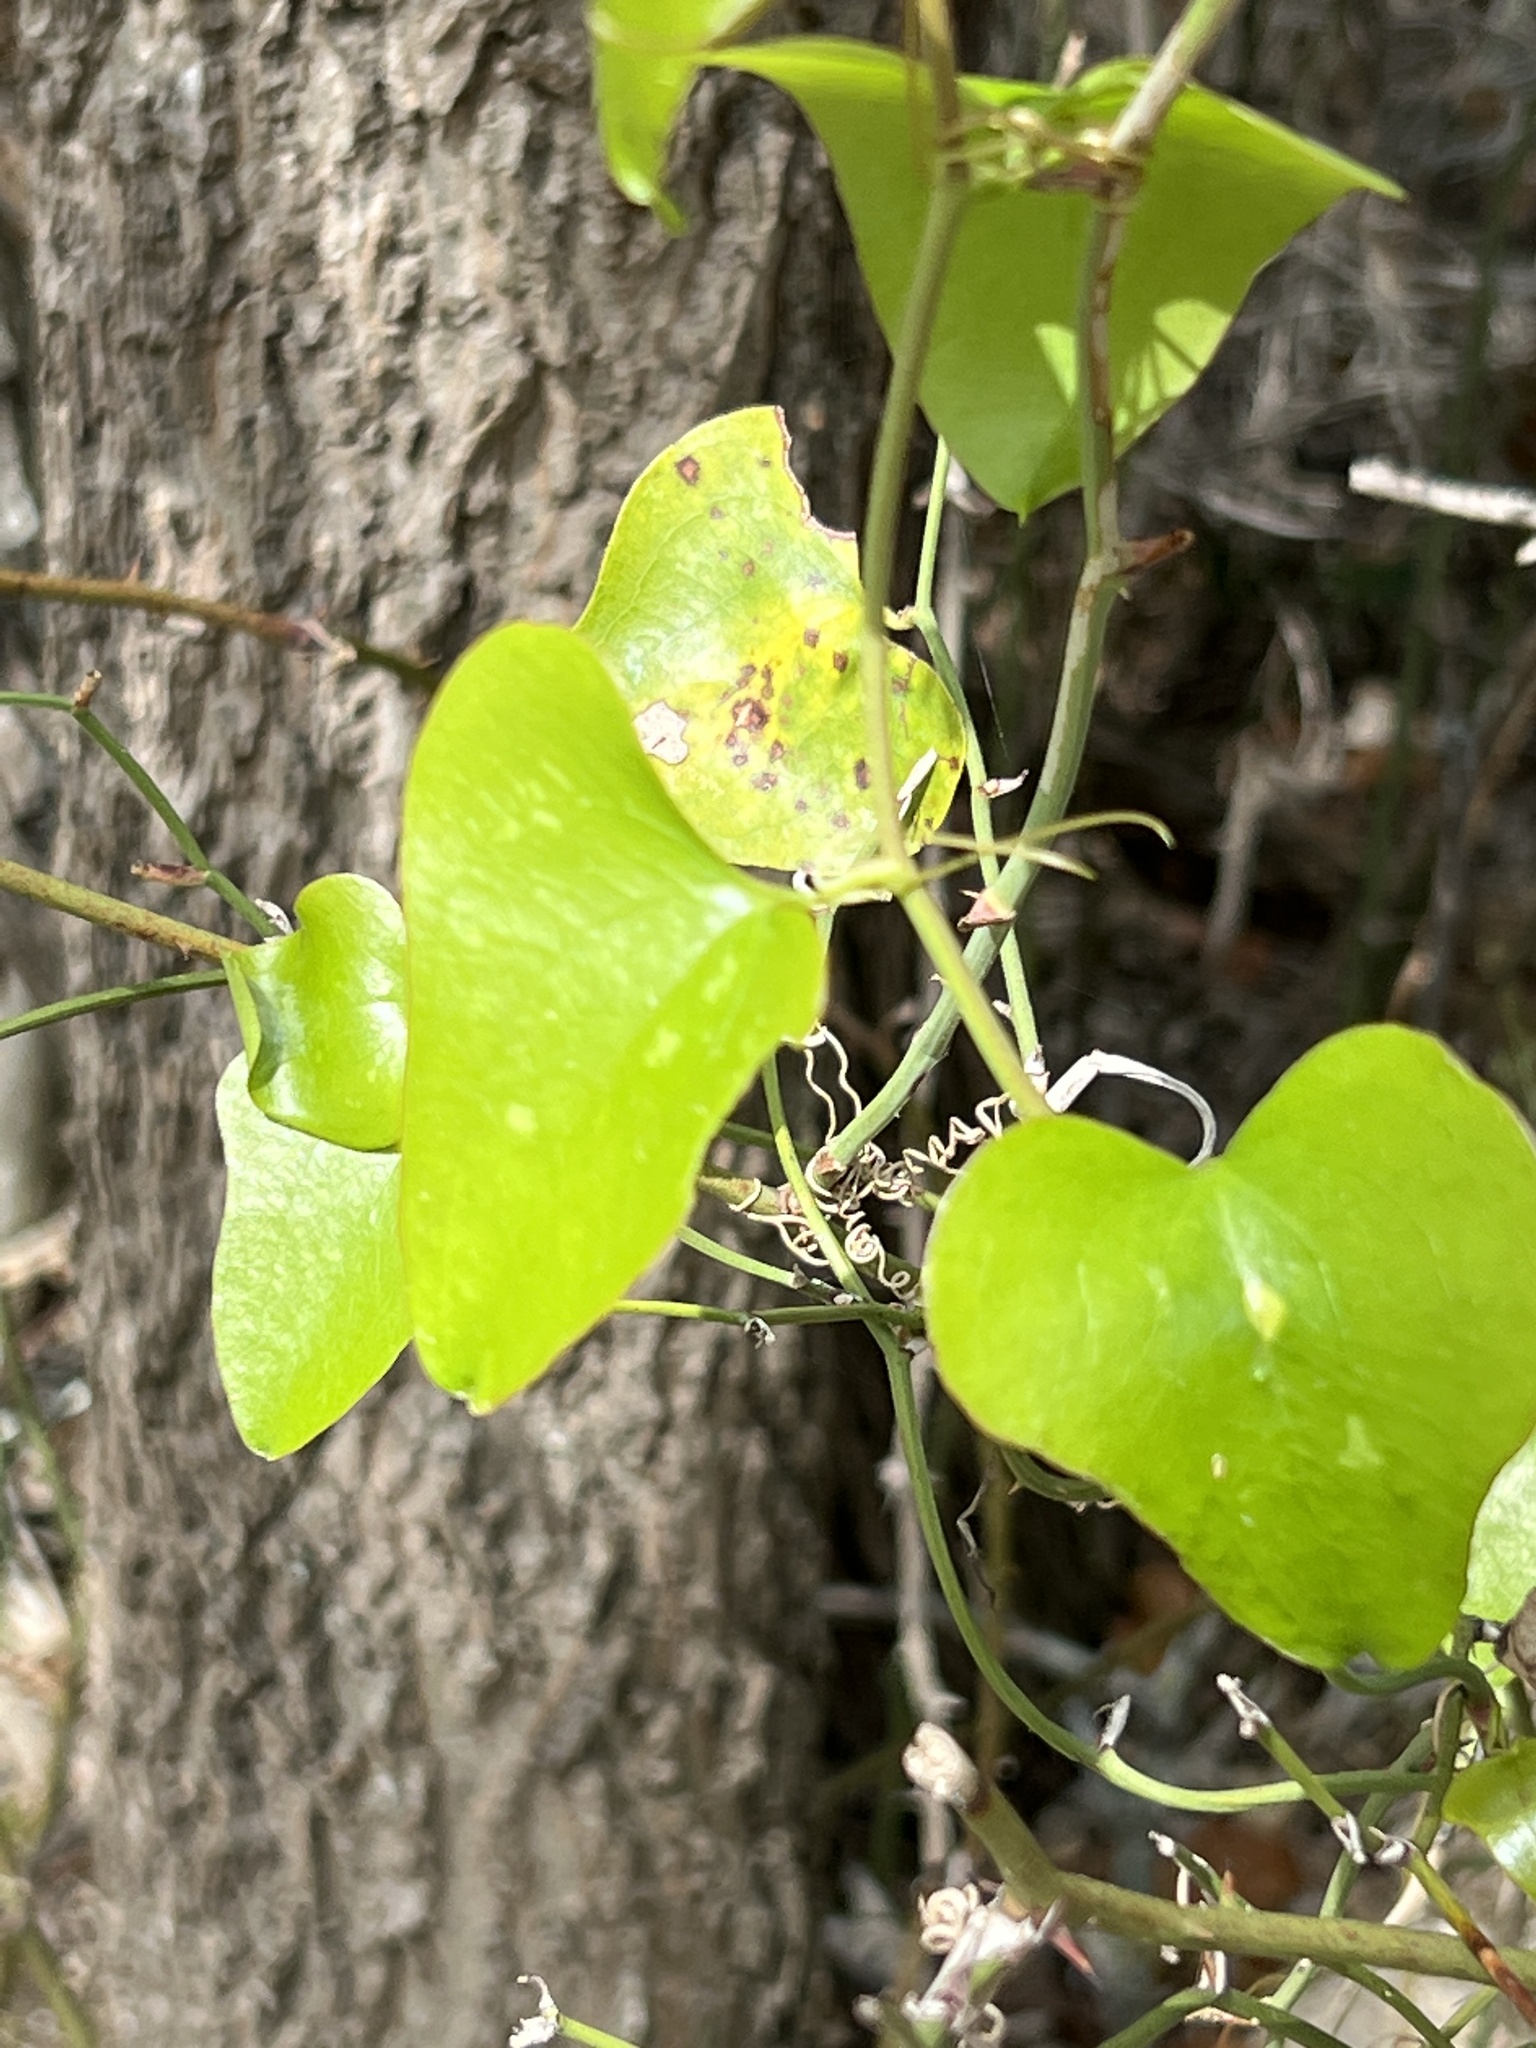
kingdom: Plantae
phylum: Tracheophyta
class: Liliopsida
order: Liliales
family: Smilacaceae
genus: Smilax
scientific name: Smilax bona-nox
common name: Catbrier
